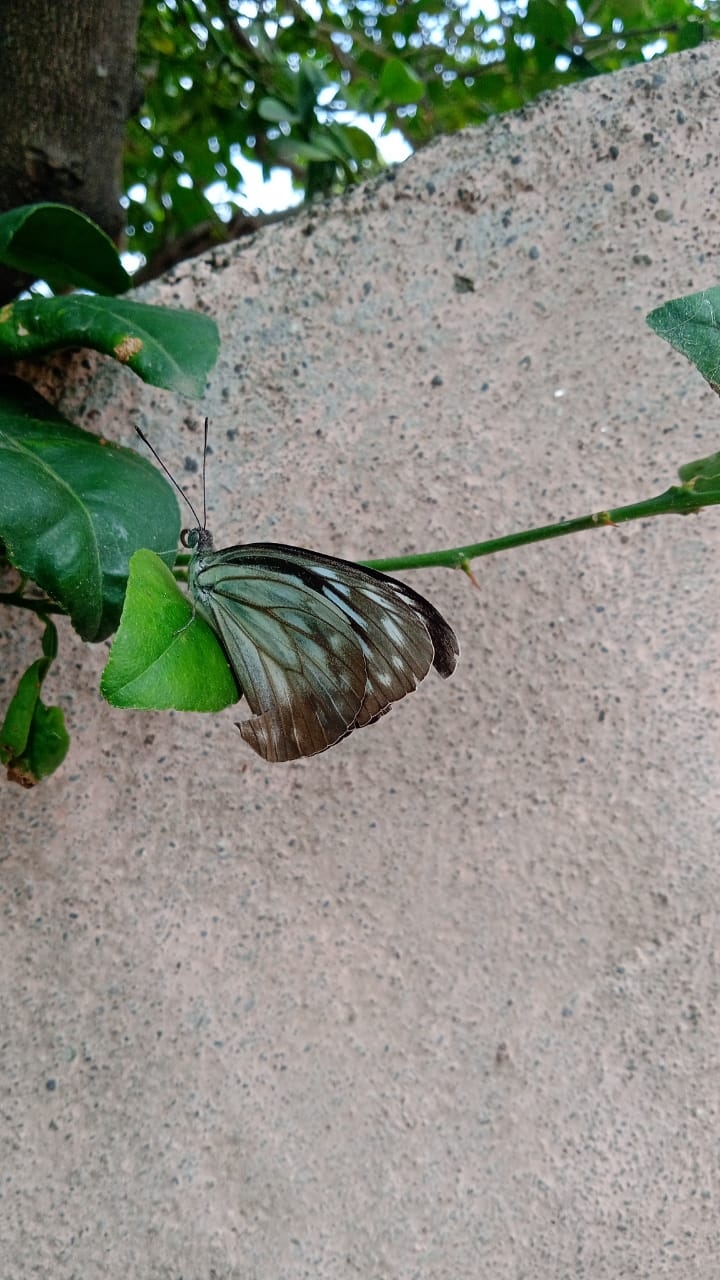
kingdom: Animalia
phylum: Arthropoda
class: Insecta
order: Lepidoptera
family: Pieridae
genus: Pareronia
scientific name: Pareronia hippia
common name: Indian wanderer
